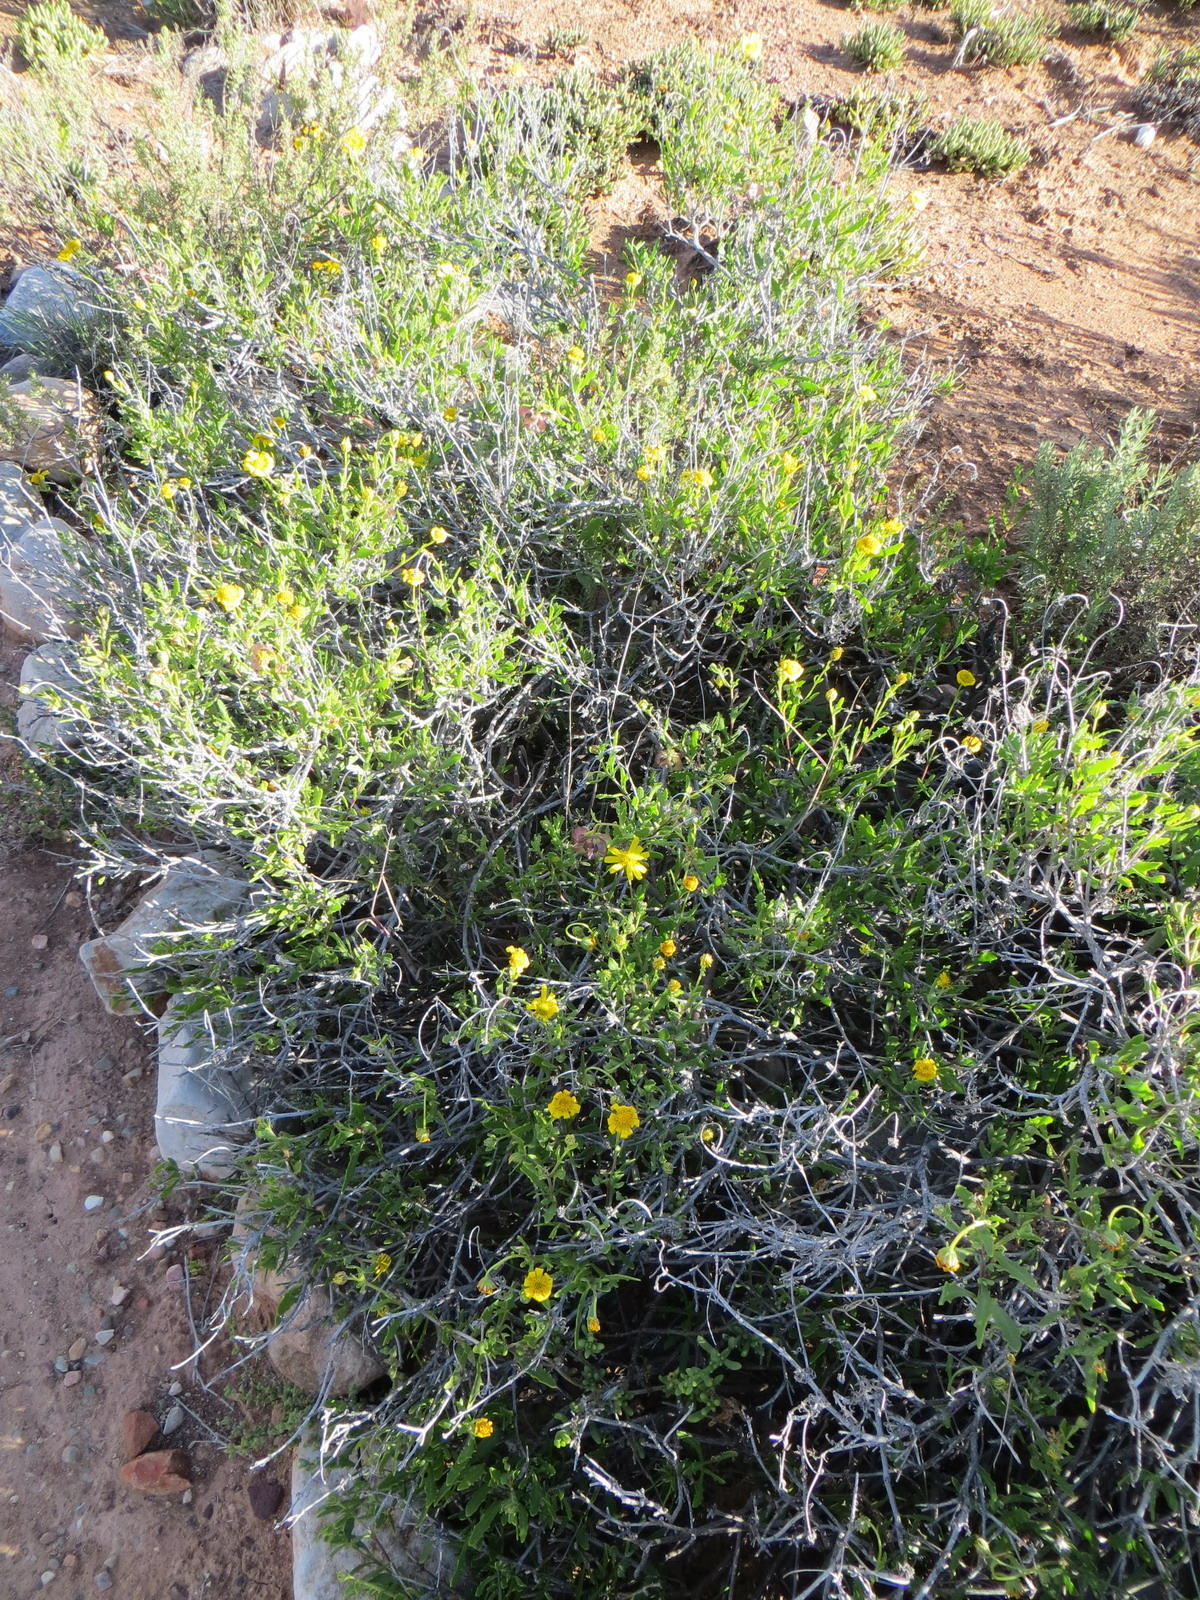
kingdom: Plantae
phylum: Tracheophyta
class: Magnoliopsida
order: Asterales
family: Asteraceae
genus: Osteospermum
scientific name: Osteospermum sinuatum
